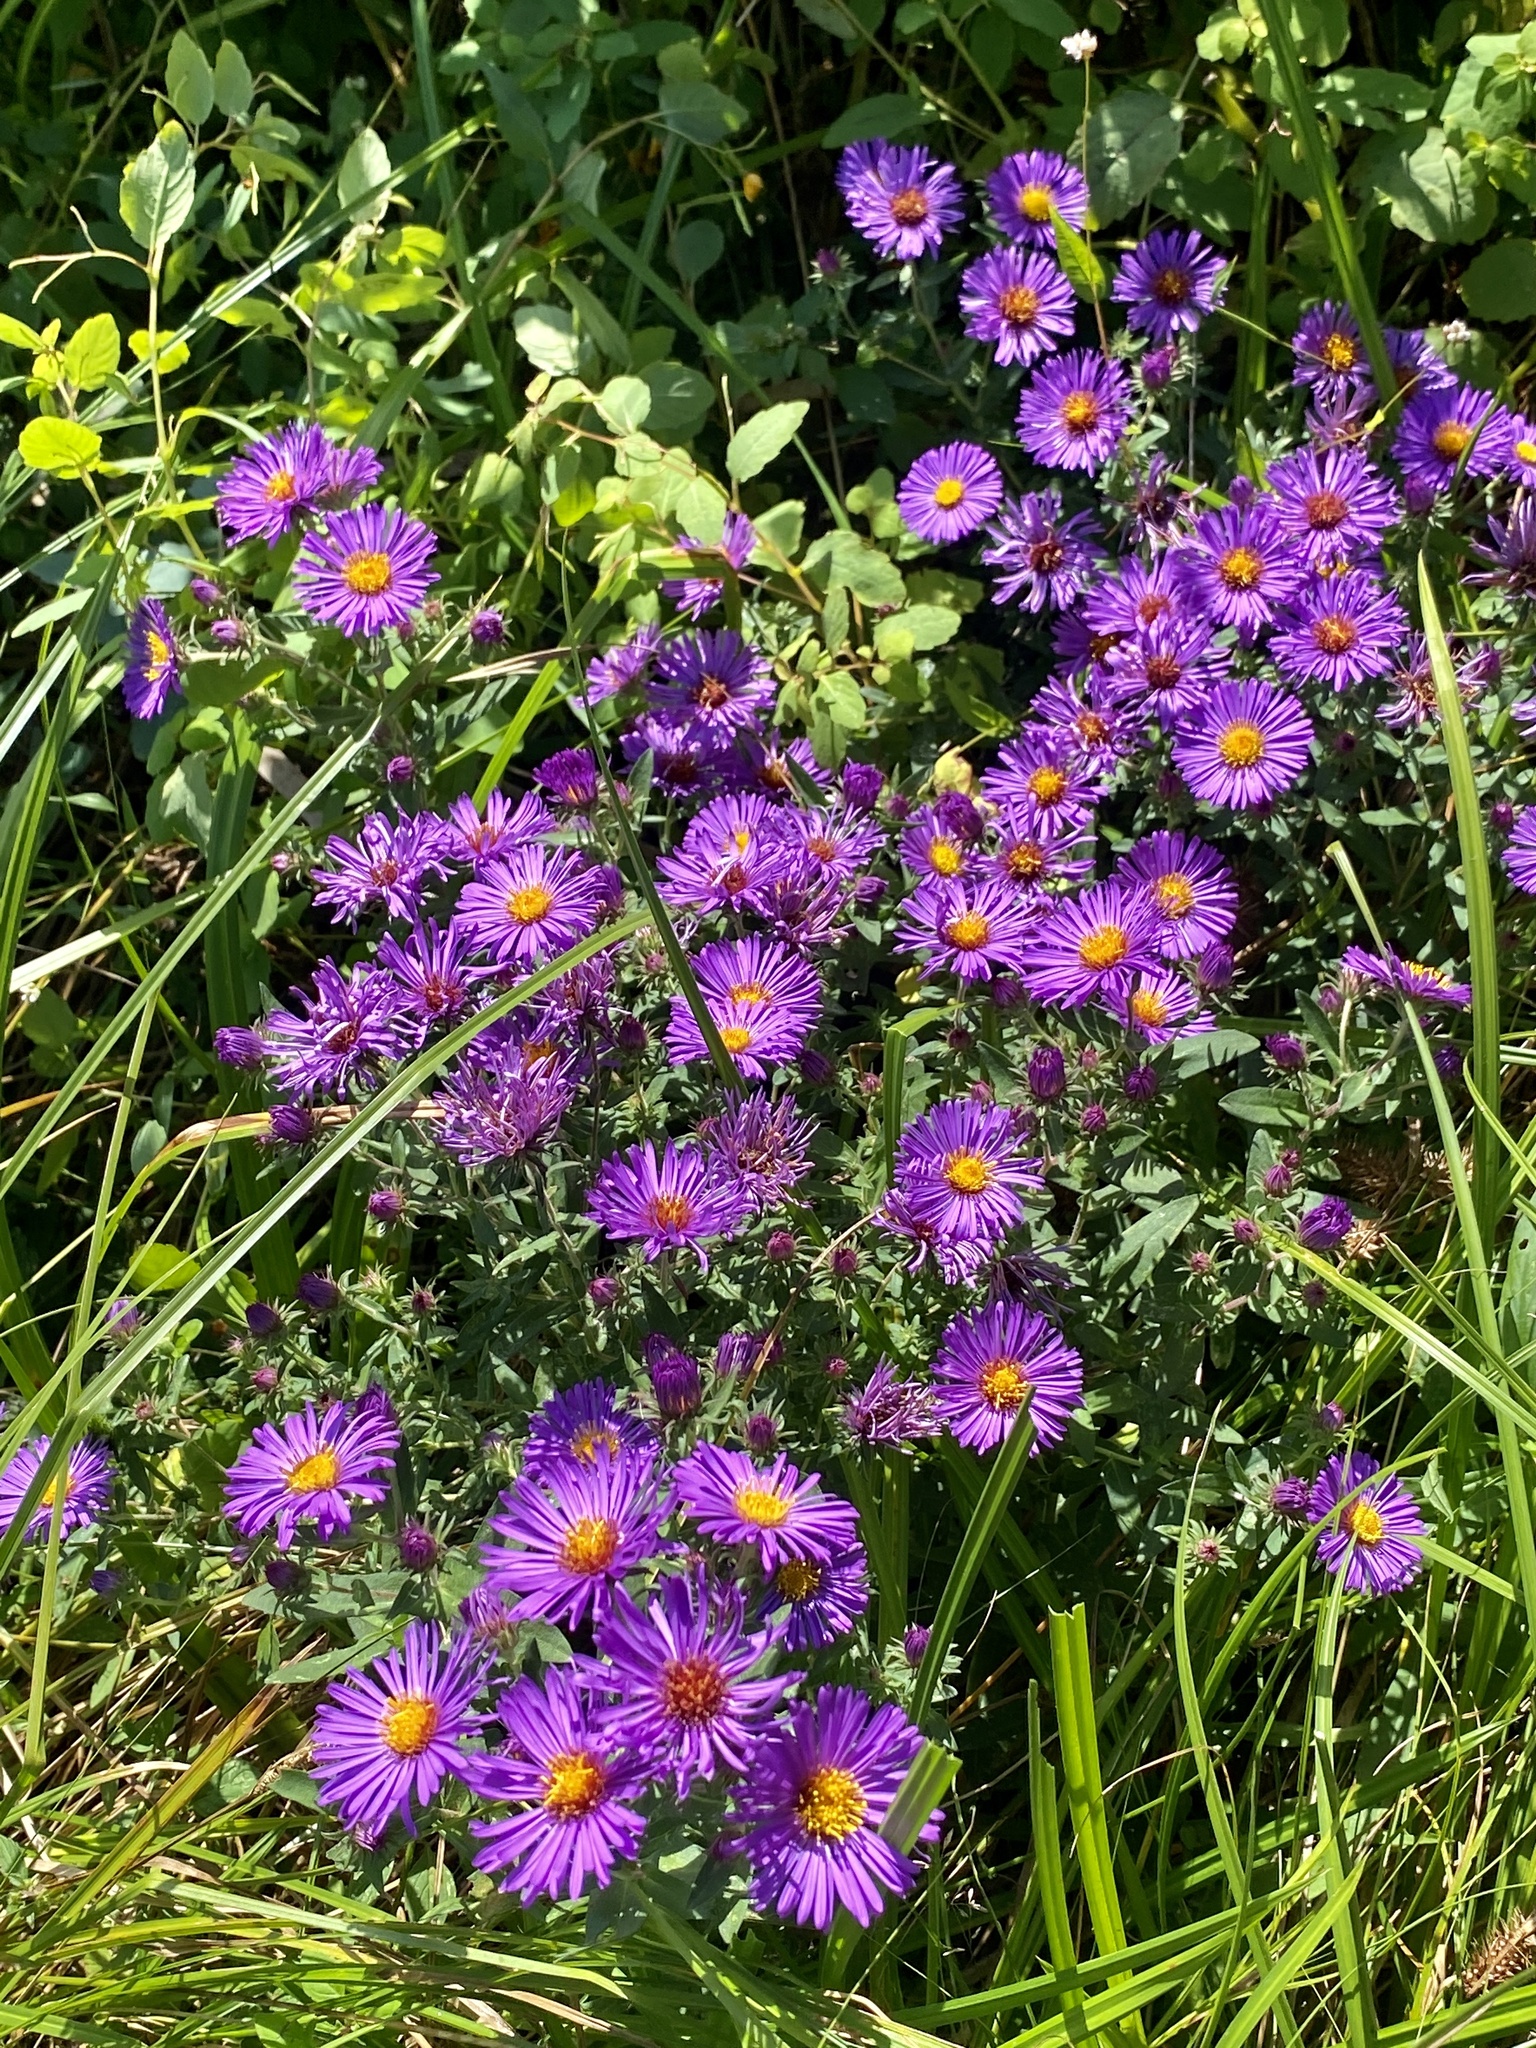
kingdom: Plantae
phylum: Tracheophyta
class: Magnoliopsida
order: Asterales
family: Asteraceae
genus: Symphyotrichum
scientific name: Symphyotrichum novae-angliae
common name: Michaelmas daisy
